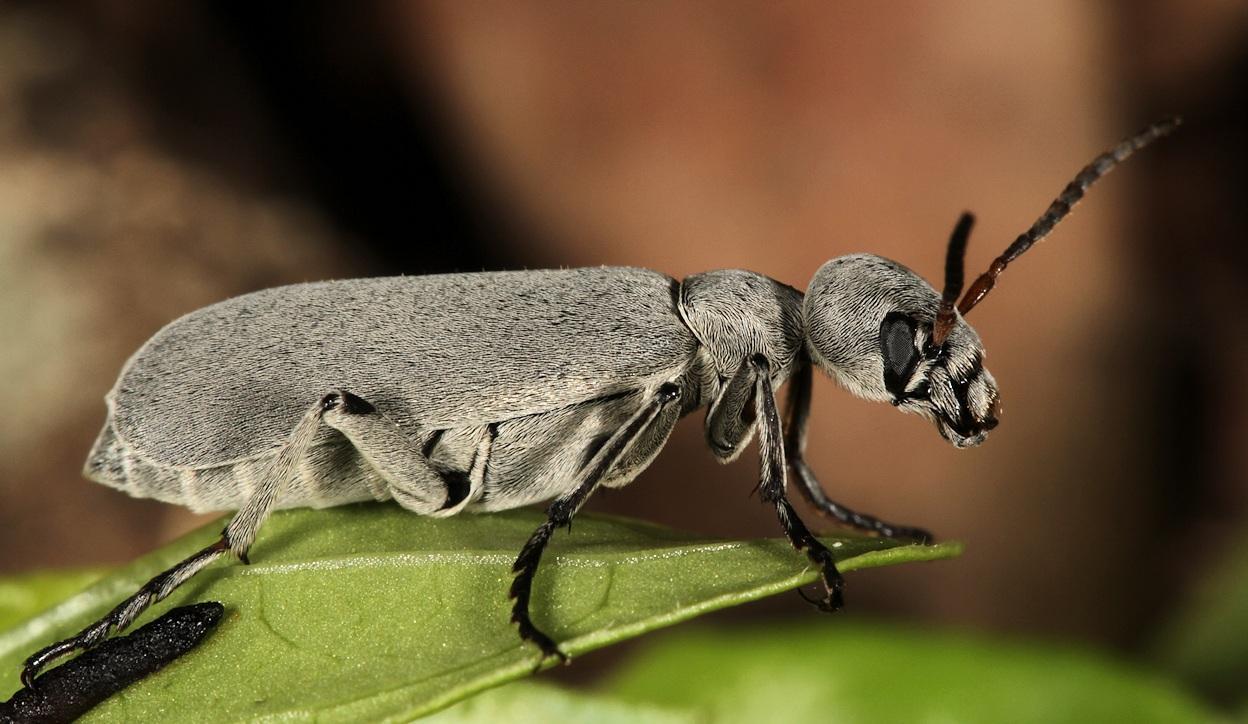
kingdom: Animalia
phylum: Arthropoda
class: Insecta
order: Coleoptera
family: Meloidae
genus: Epicauta
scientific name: Epicauta velata
